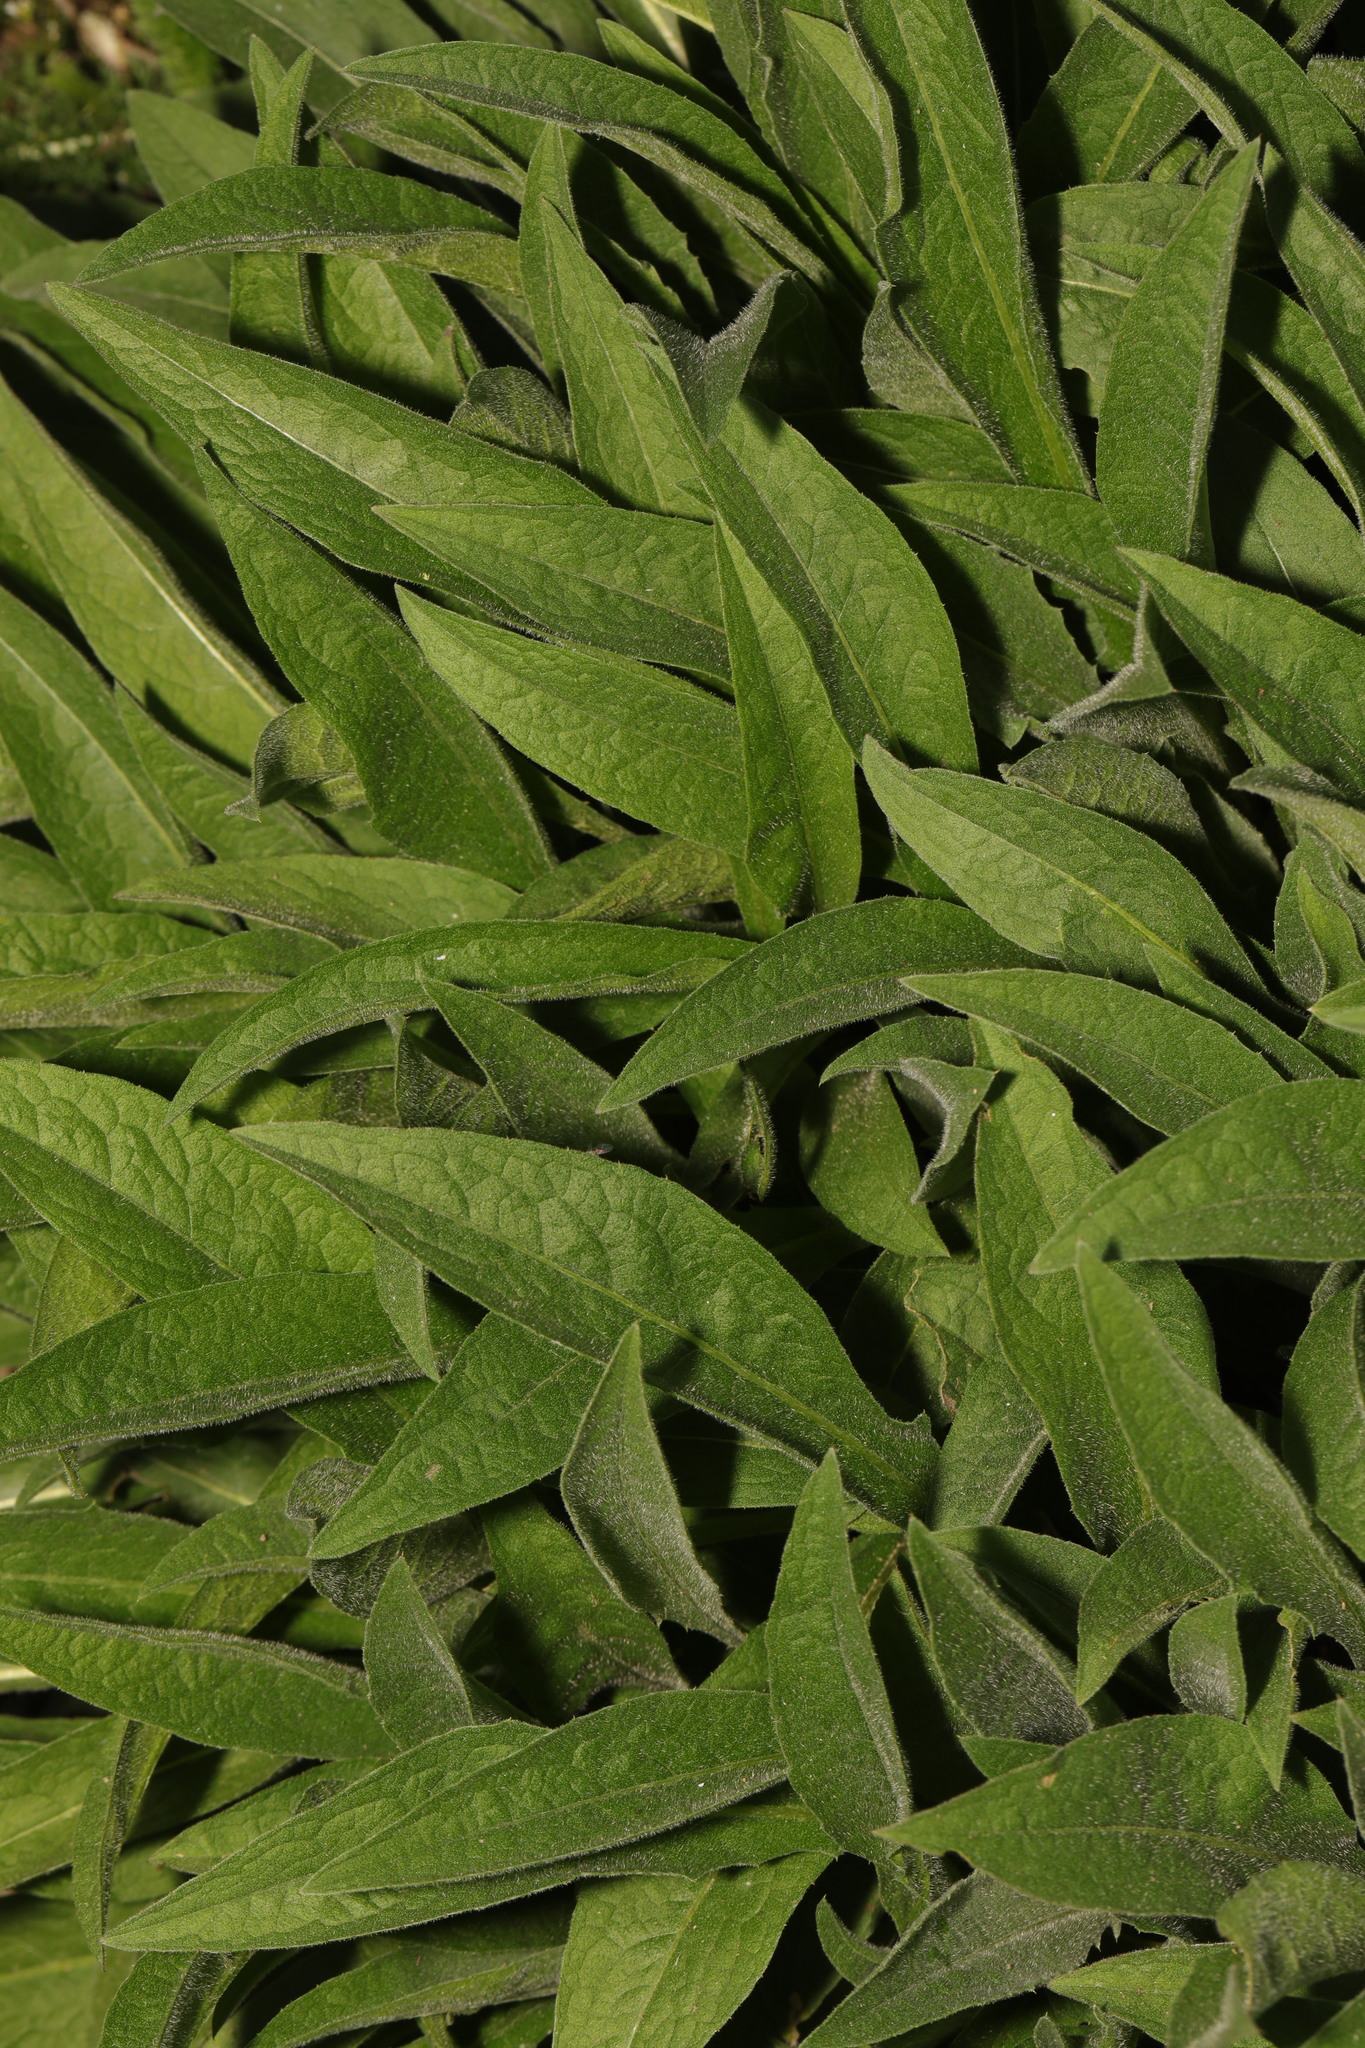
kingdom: Plantae
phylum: Tracheophyta
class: Magnoliopsida
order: Asterales
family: Asteraceae
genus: Centaurea
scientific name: Centaurea nigra
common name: Lesser knapweed
